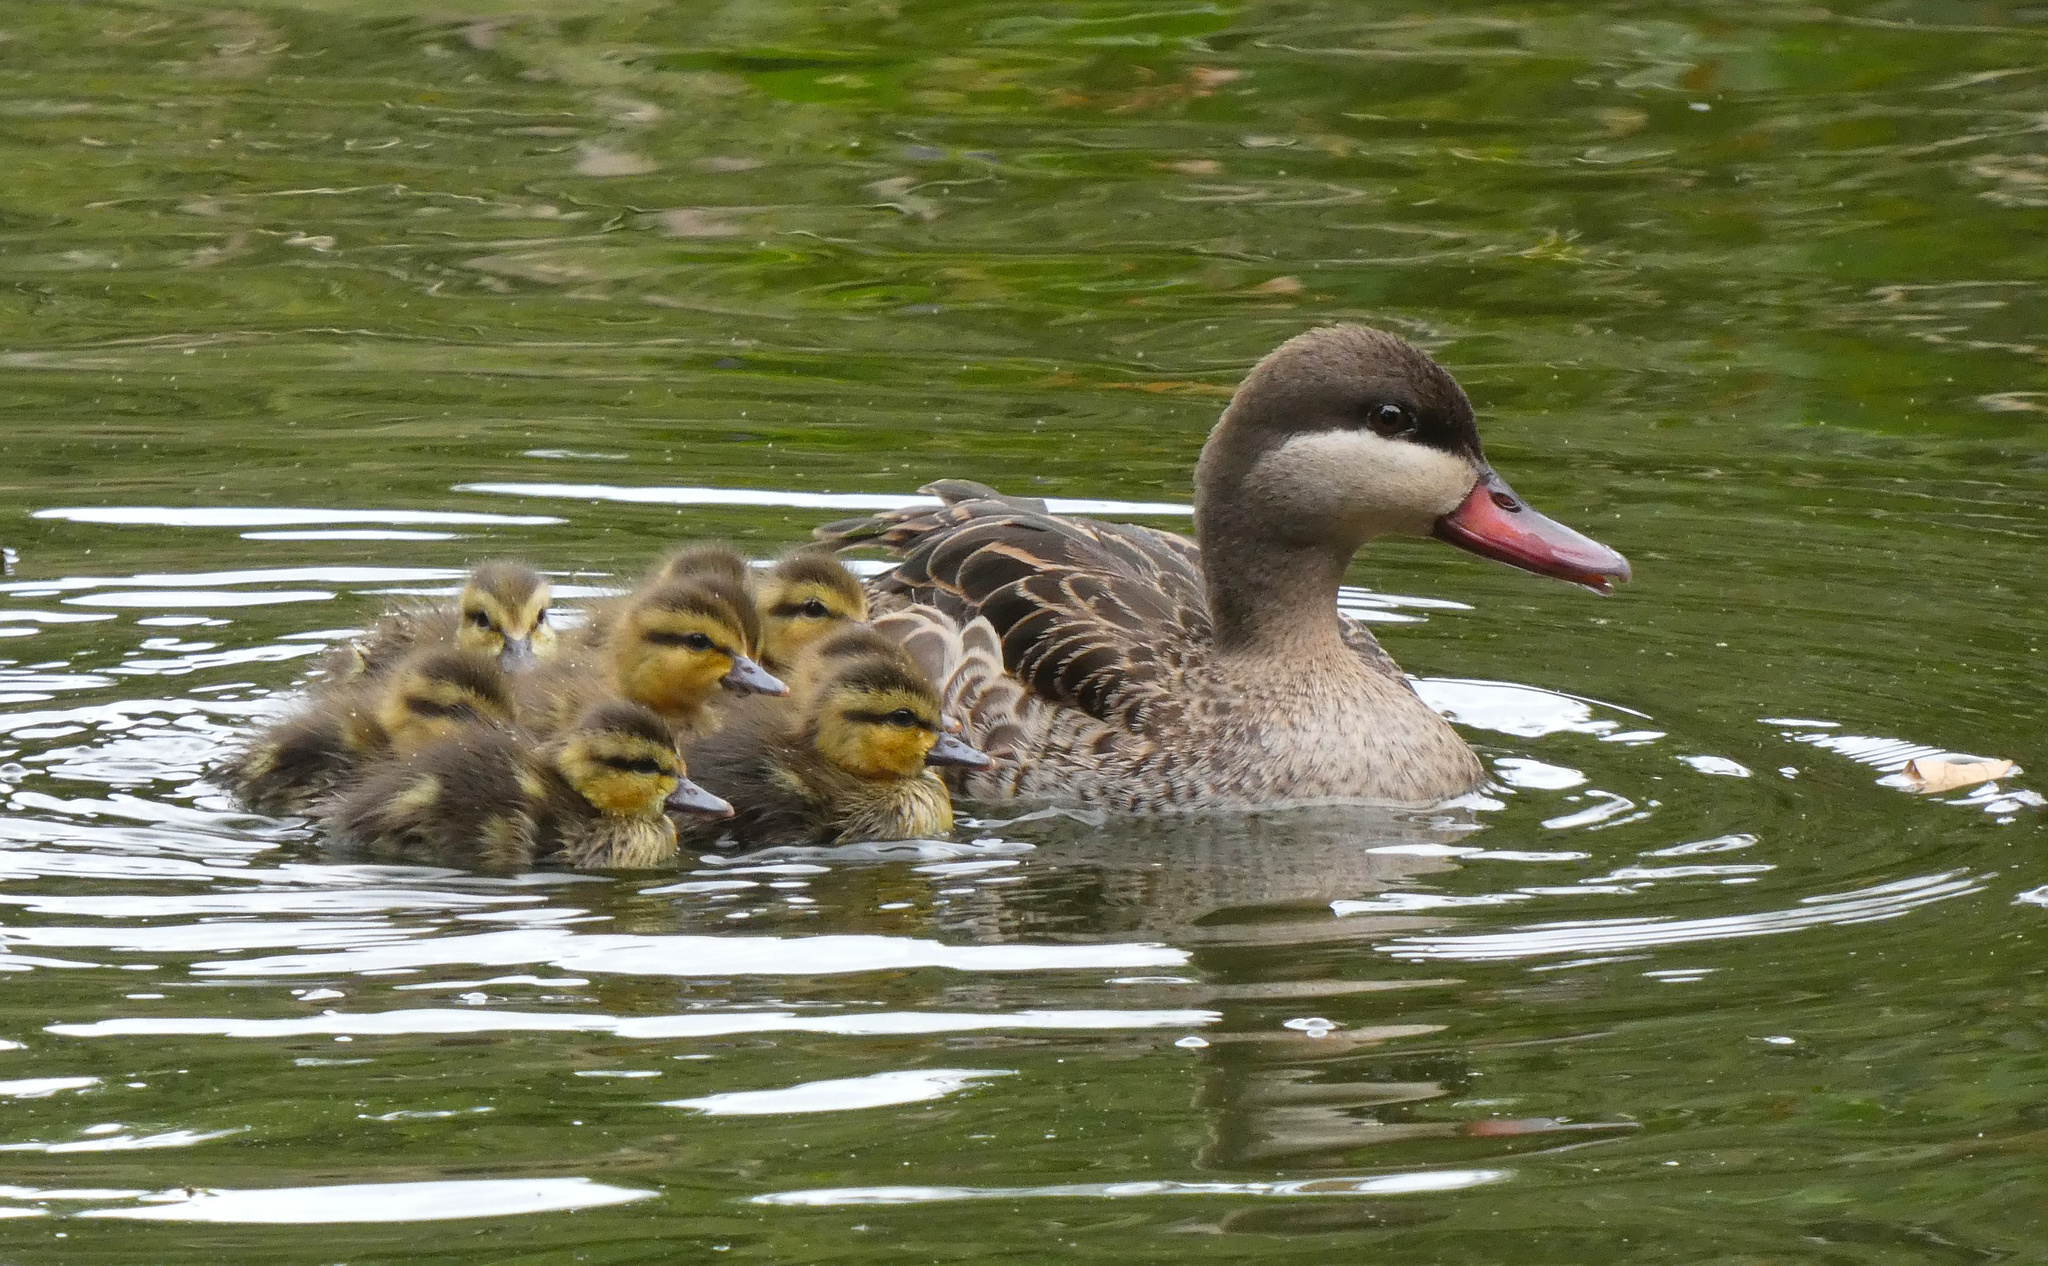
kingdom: Animalia
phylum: Chordata
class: Aves
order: Anseriformes
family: Anatidae
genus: Anas
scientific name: Anas erythrorhyncha
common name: Red-billed teal
